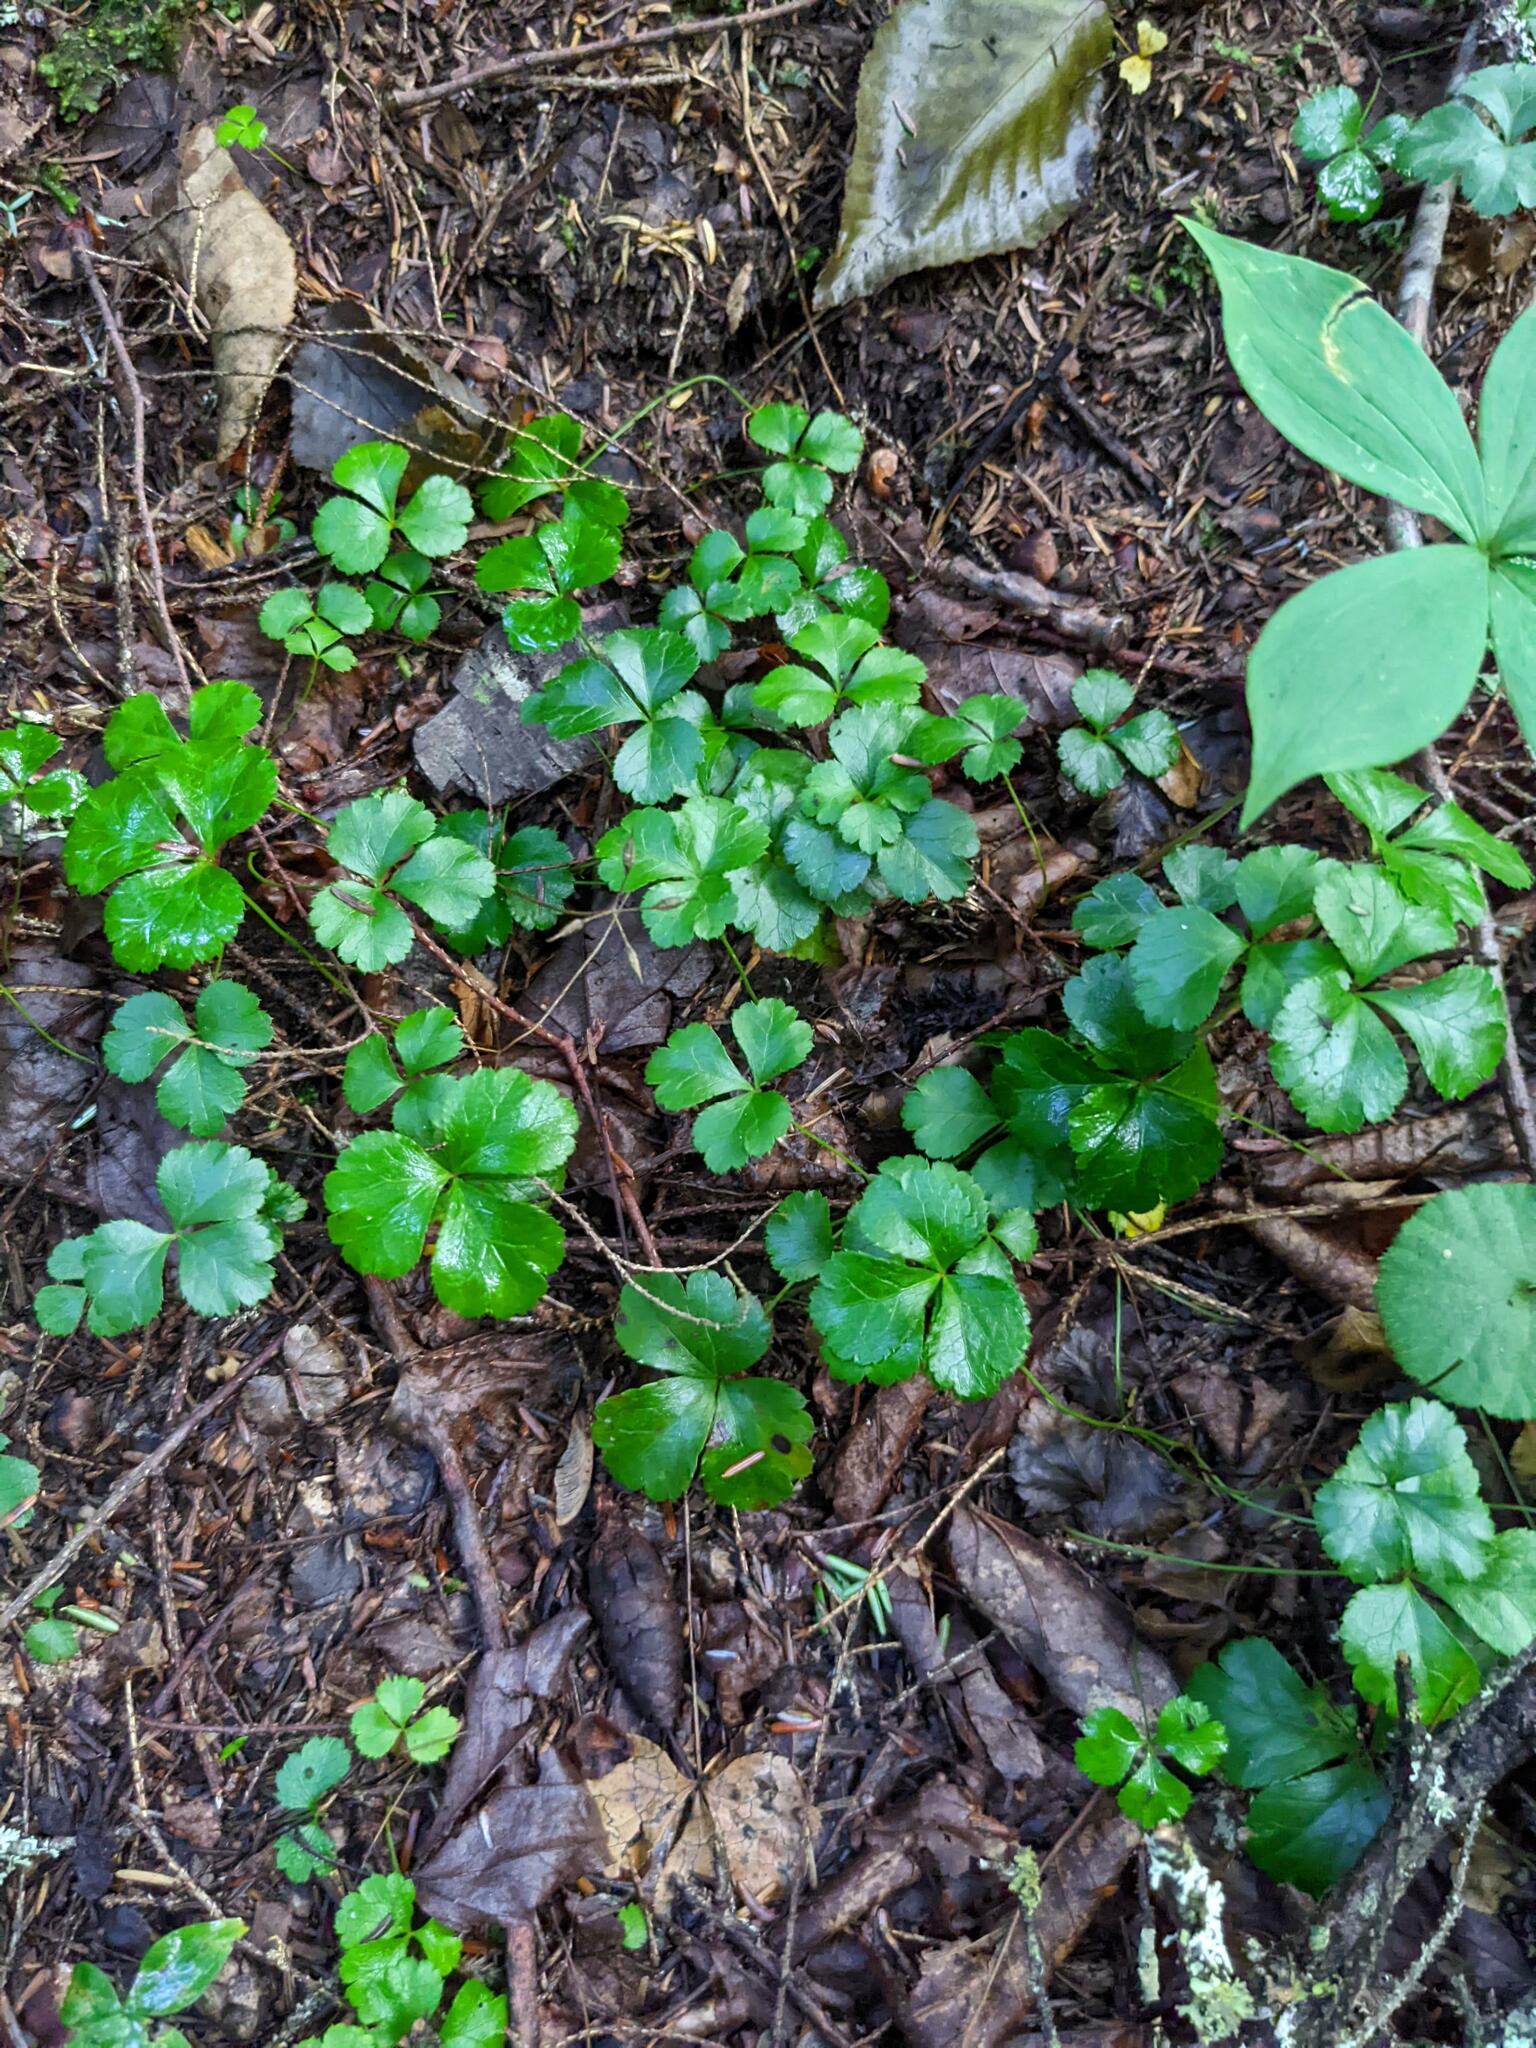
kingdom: Plantae
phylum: Tracheophyta
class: Magnoliopsida
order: Ranunculales
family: Ranunculaceae
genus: Coptis
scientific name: Coptis trifolia
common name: Canker-root
